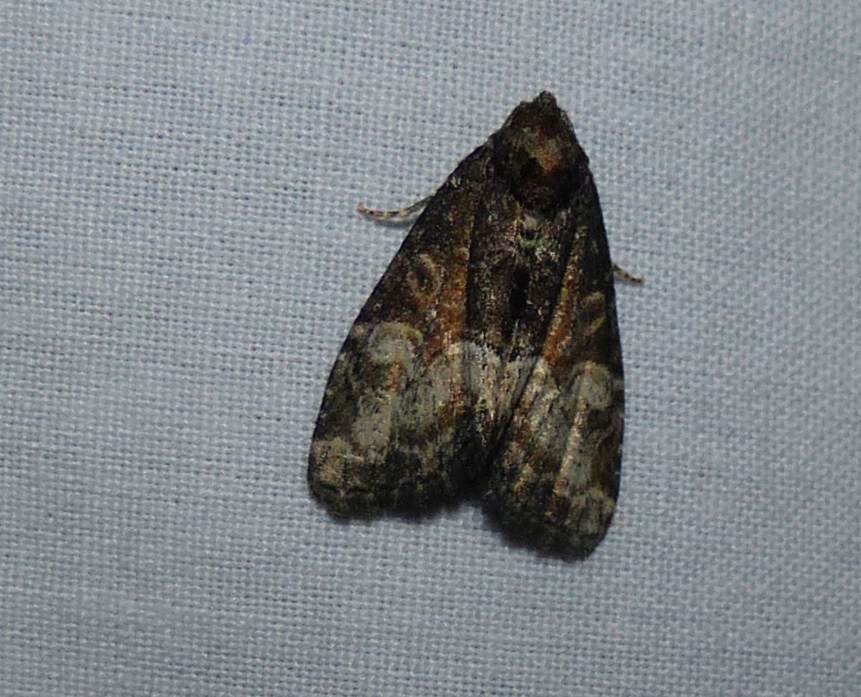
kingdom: Animalia
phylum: Arthropoda
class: Insecta
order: Lepidoptera
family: Noctuidae
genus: Neoligia
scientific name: Neoligia subjuncta
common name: Connected brocade
